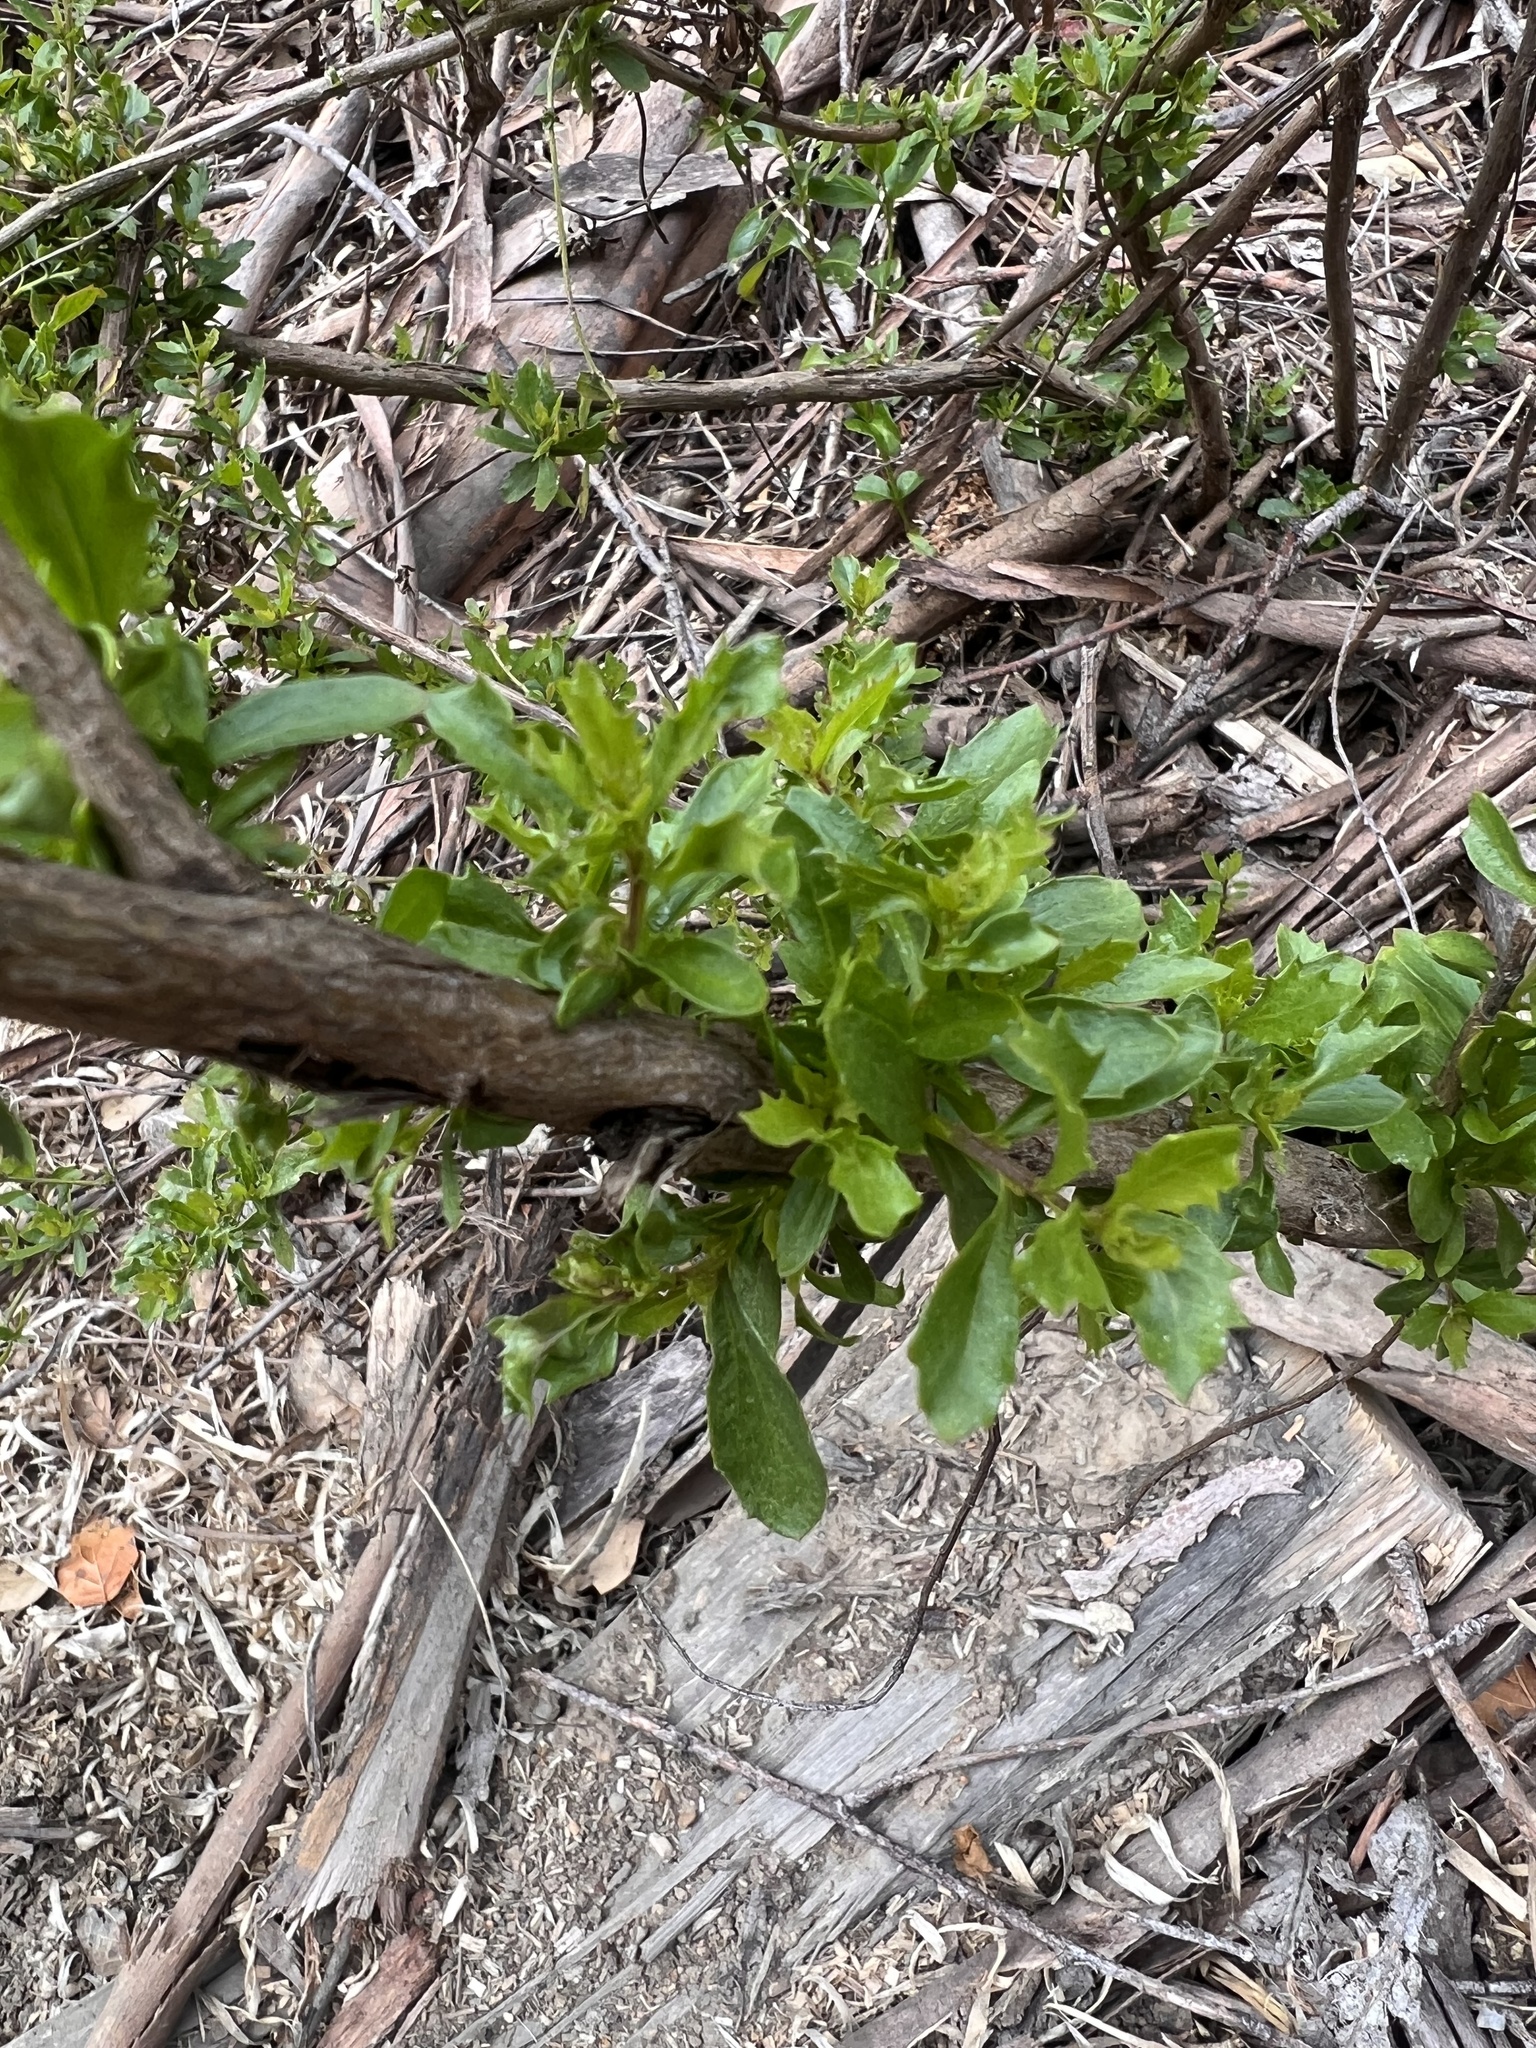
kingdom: Plantae
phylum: Tracheophyta
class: Magnoliopsida
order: Asterales
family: Asteraceae
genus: Baccharis
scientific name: Baccharis pilularis
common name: Coyotebrush
